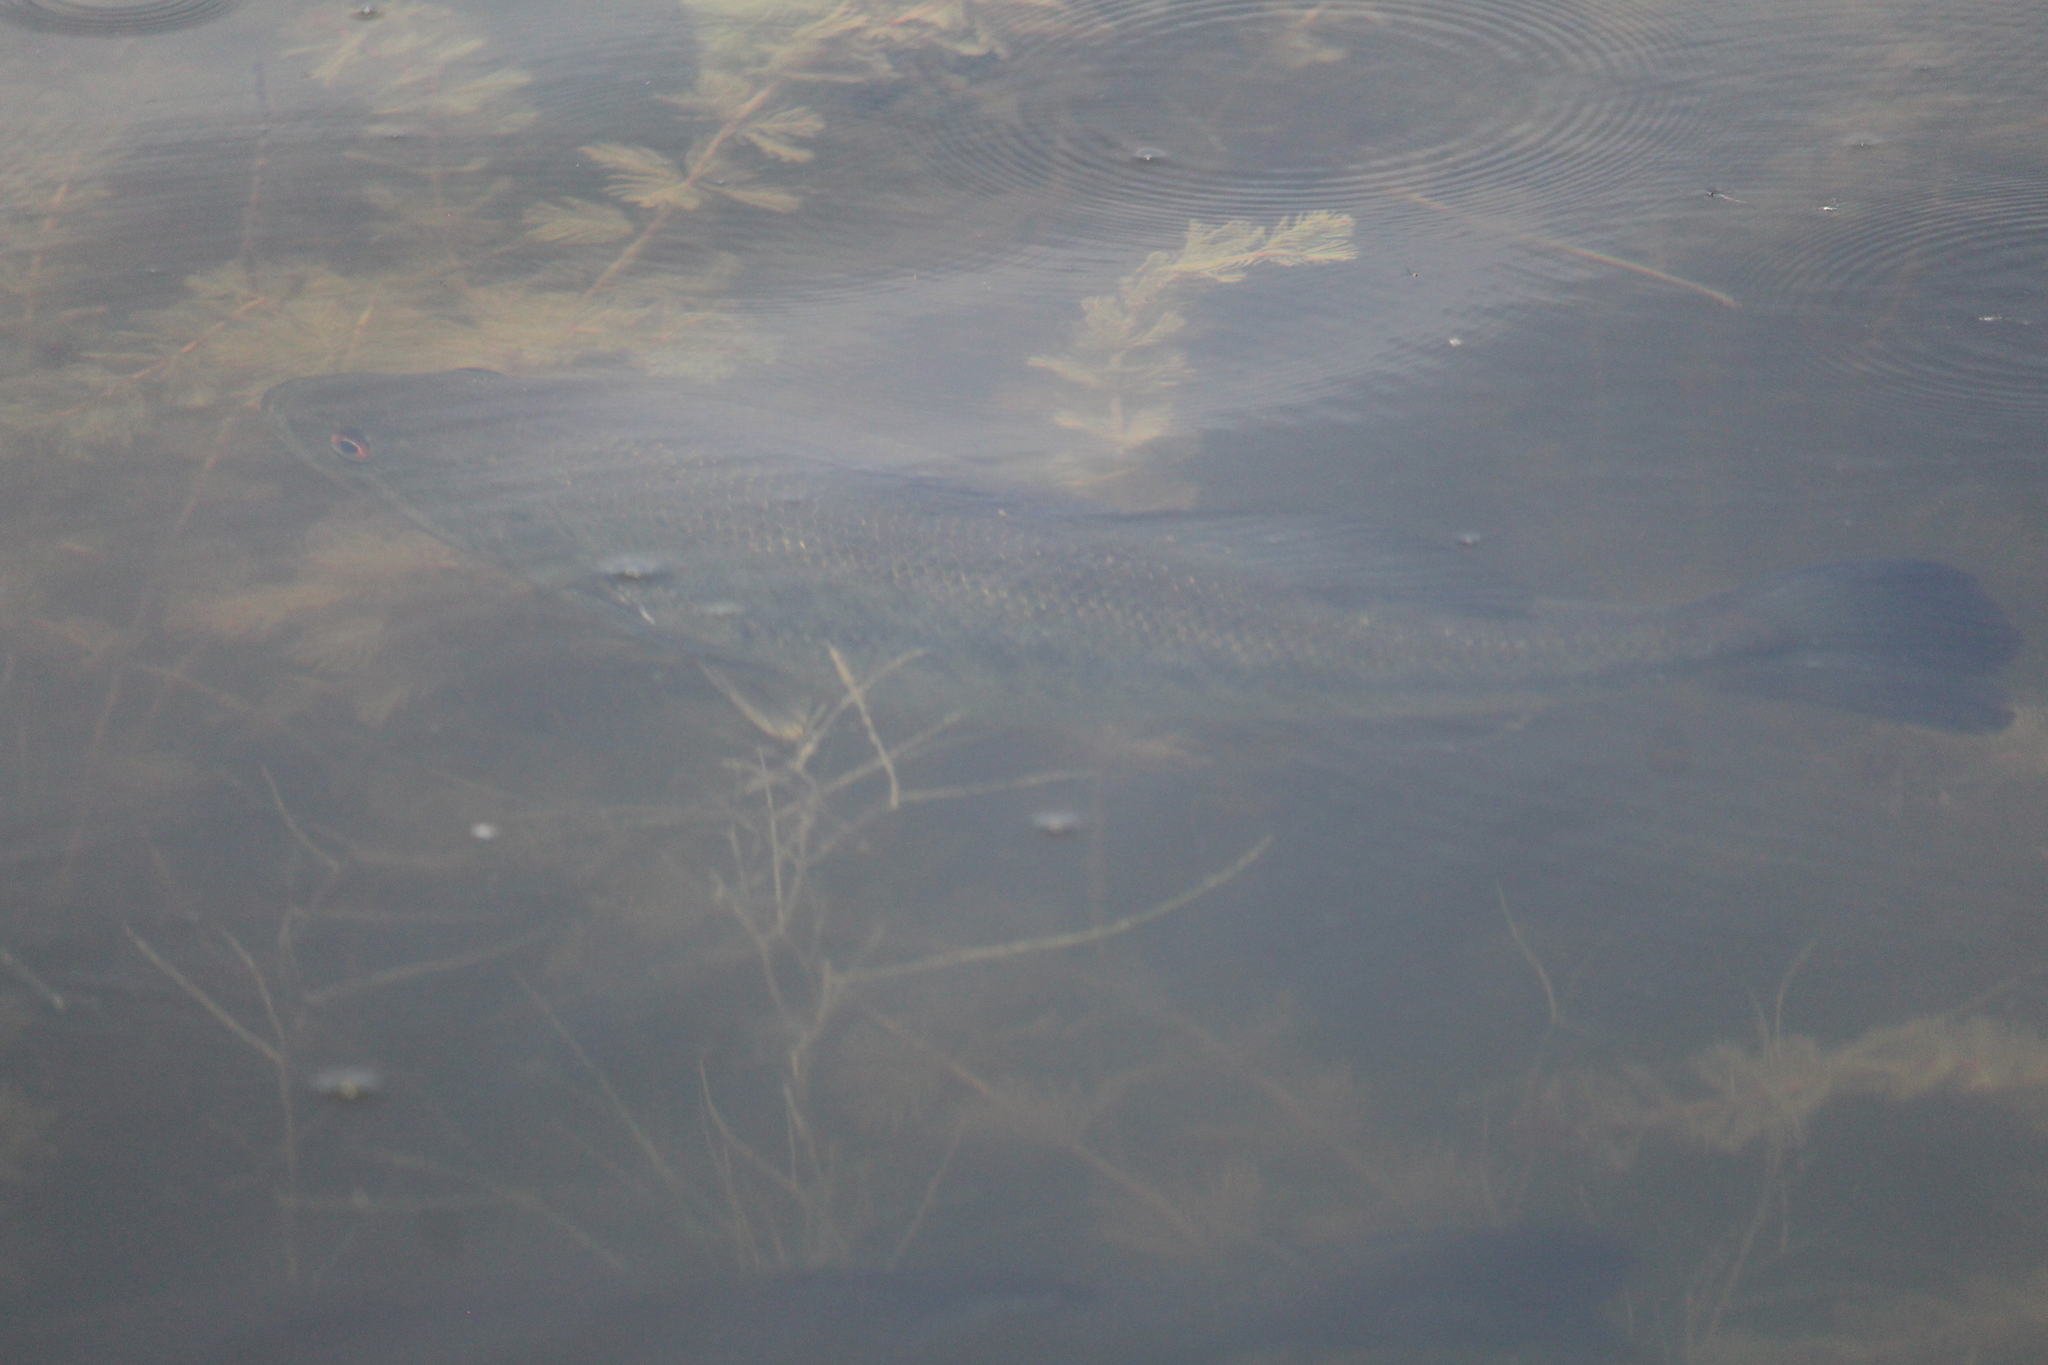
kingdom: Animalia
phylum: Chordata
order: Perciformes
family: Centrarchidae
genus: Micropterus
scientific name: Micropterus
